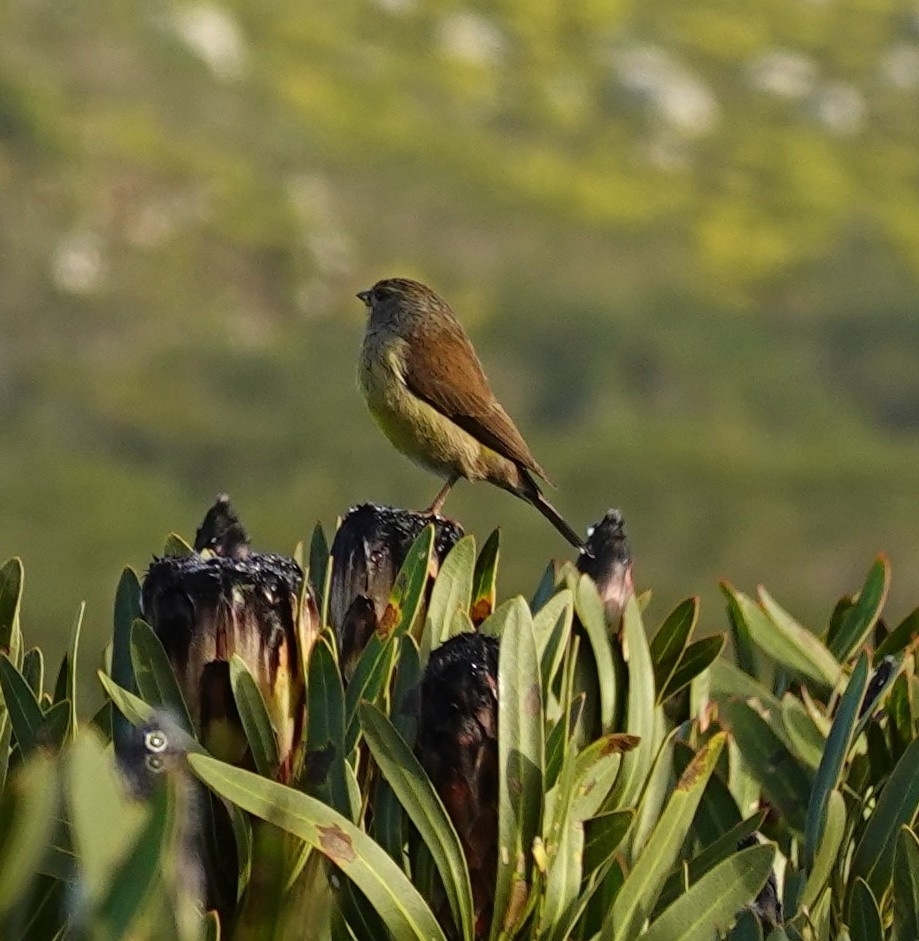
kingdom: Animalia
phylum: Chordata
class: Aves
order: Passeriformes
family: Fringillidae
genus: Crithagra
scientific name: Crithagra totta
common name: Cape siskin
